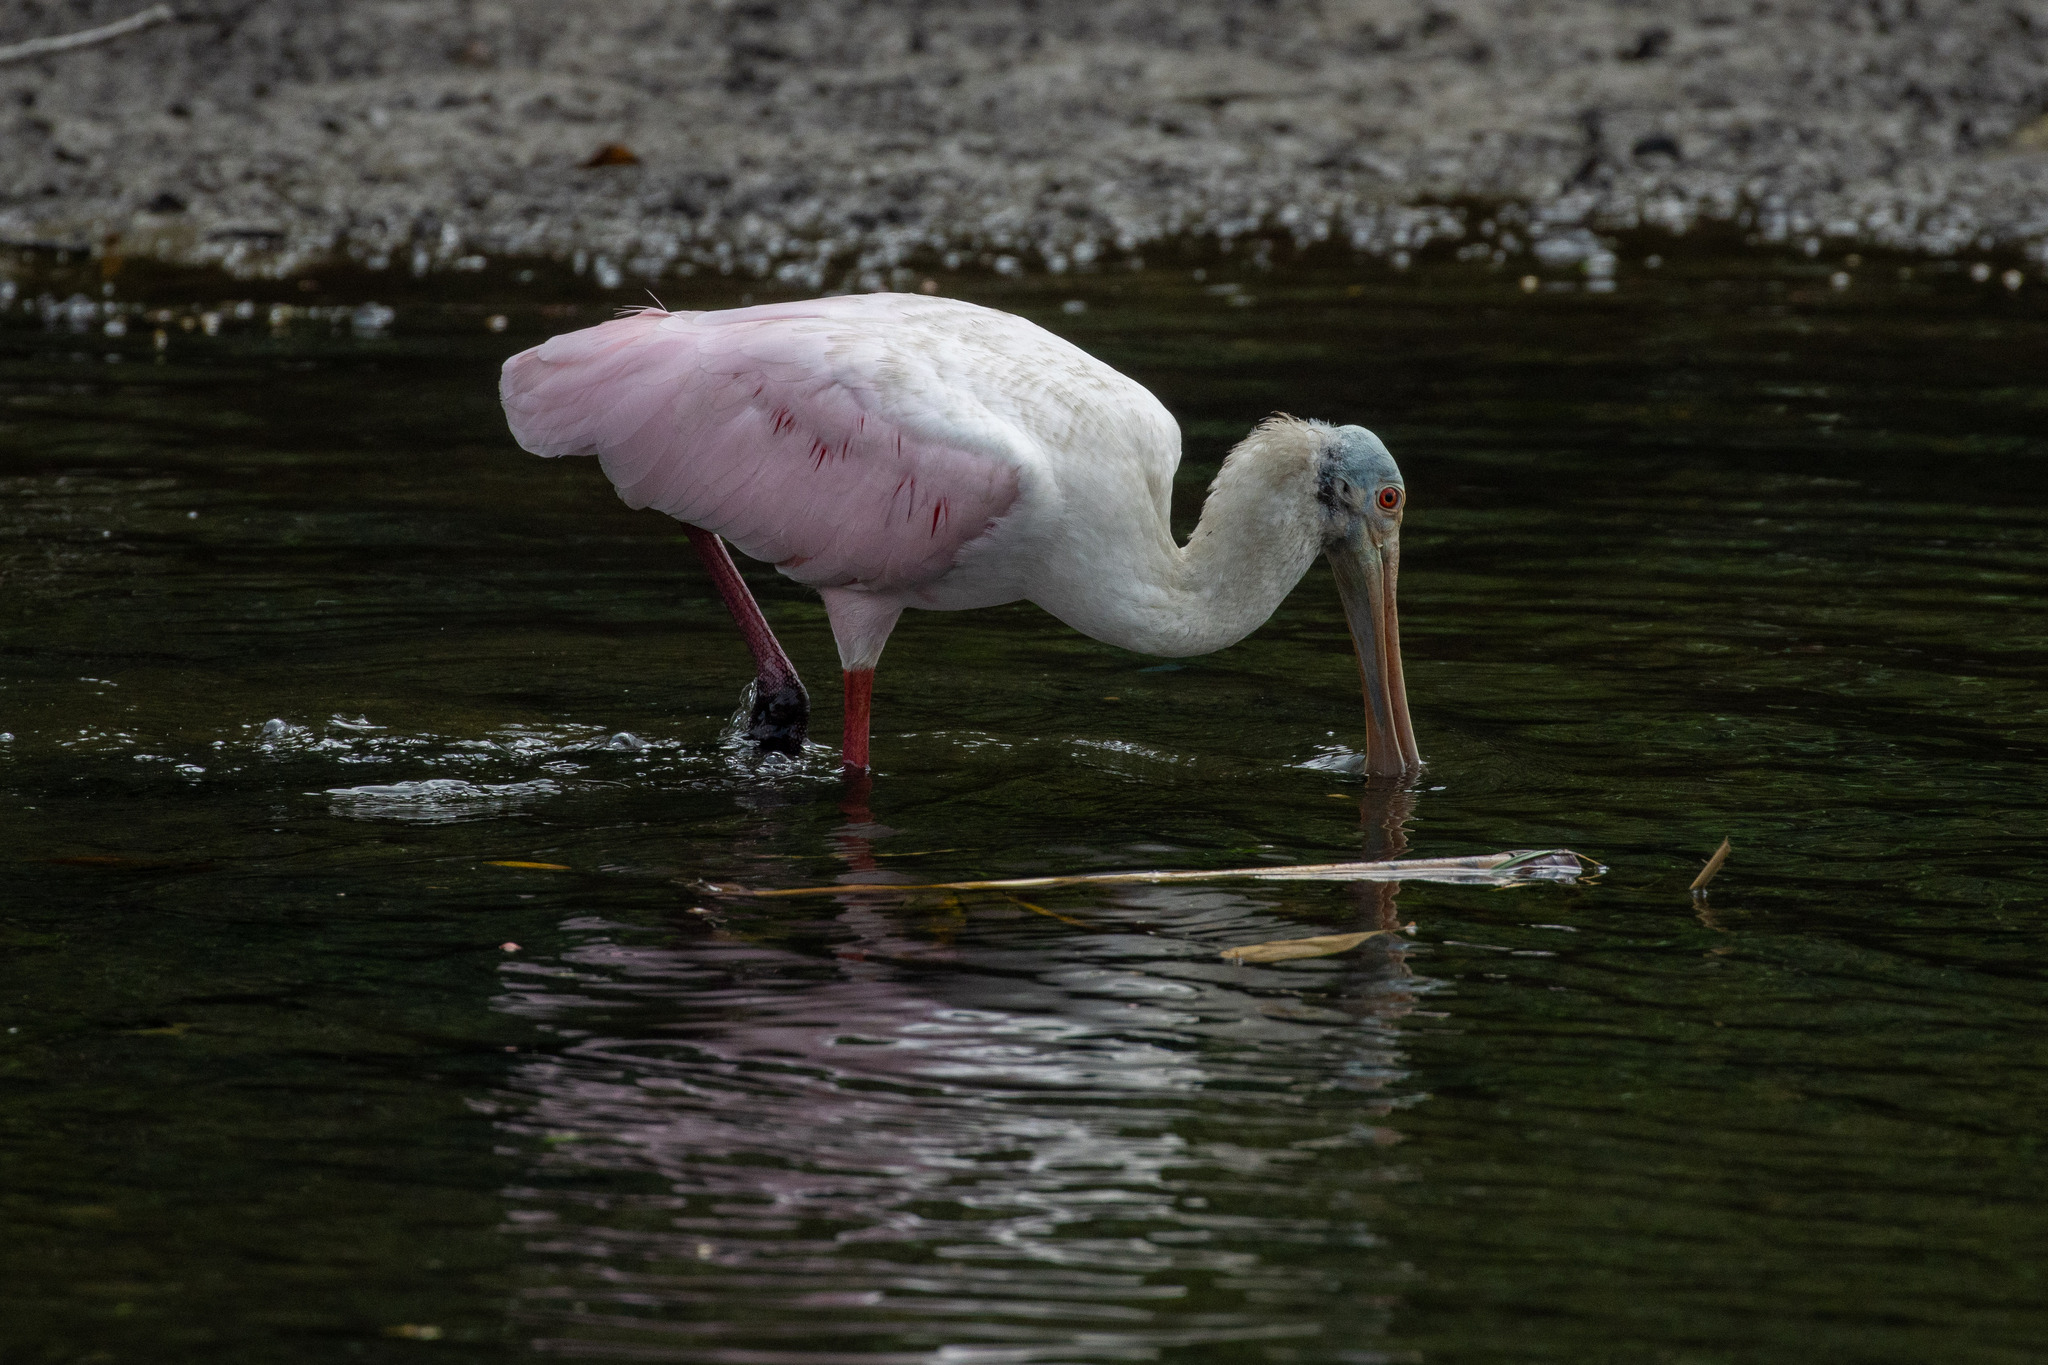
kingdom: Animalia
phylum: Chordata
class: Aves
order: Pelecaniformes
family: Threskiornithidae
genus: Platalea
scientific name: Platalea ajaja
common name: Roseate spoonbill
